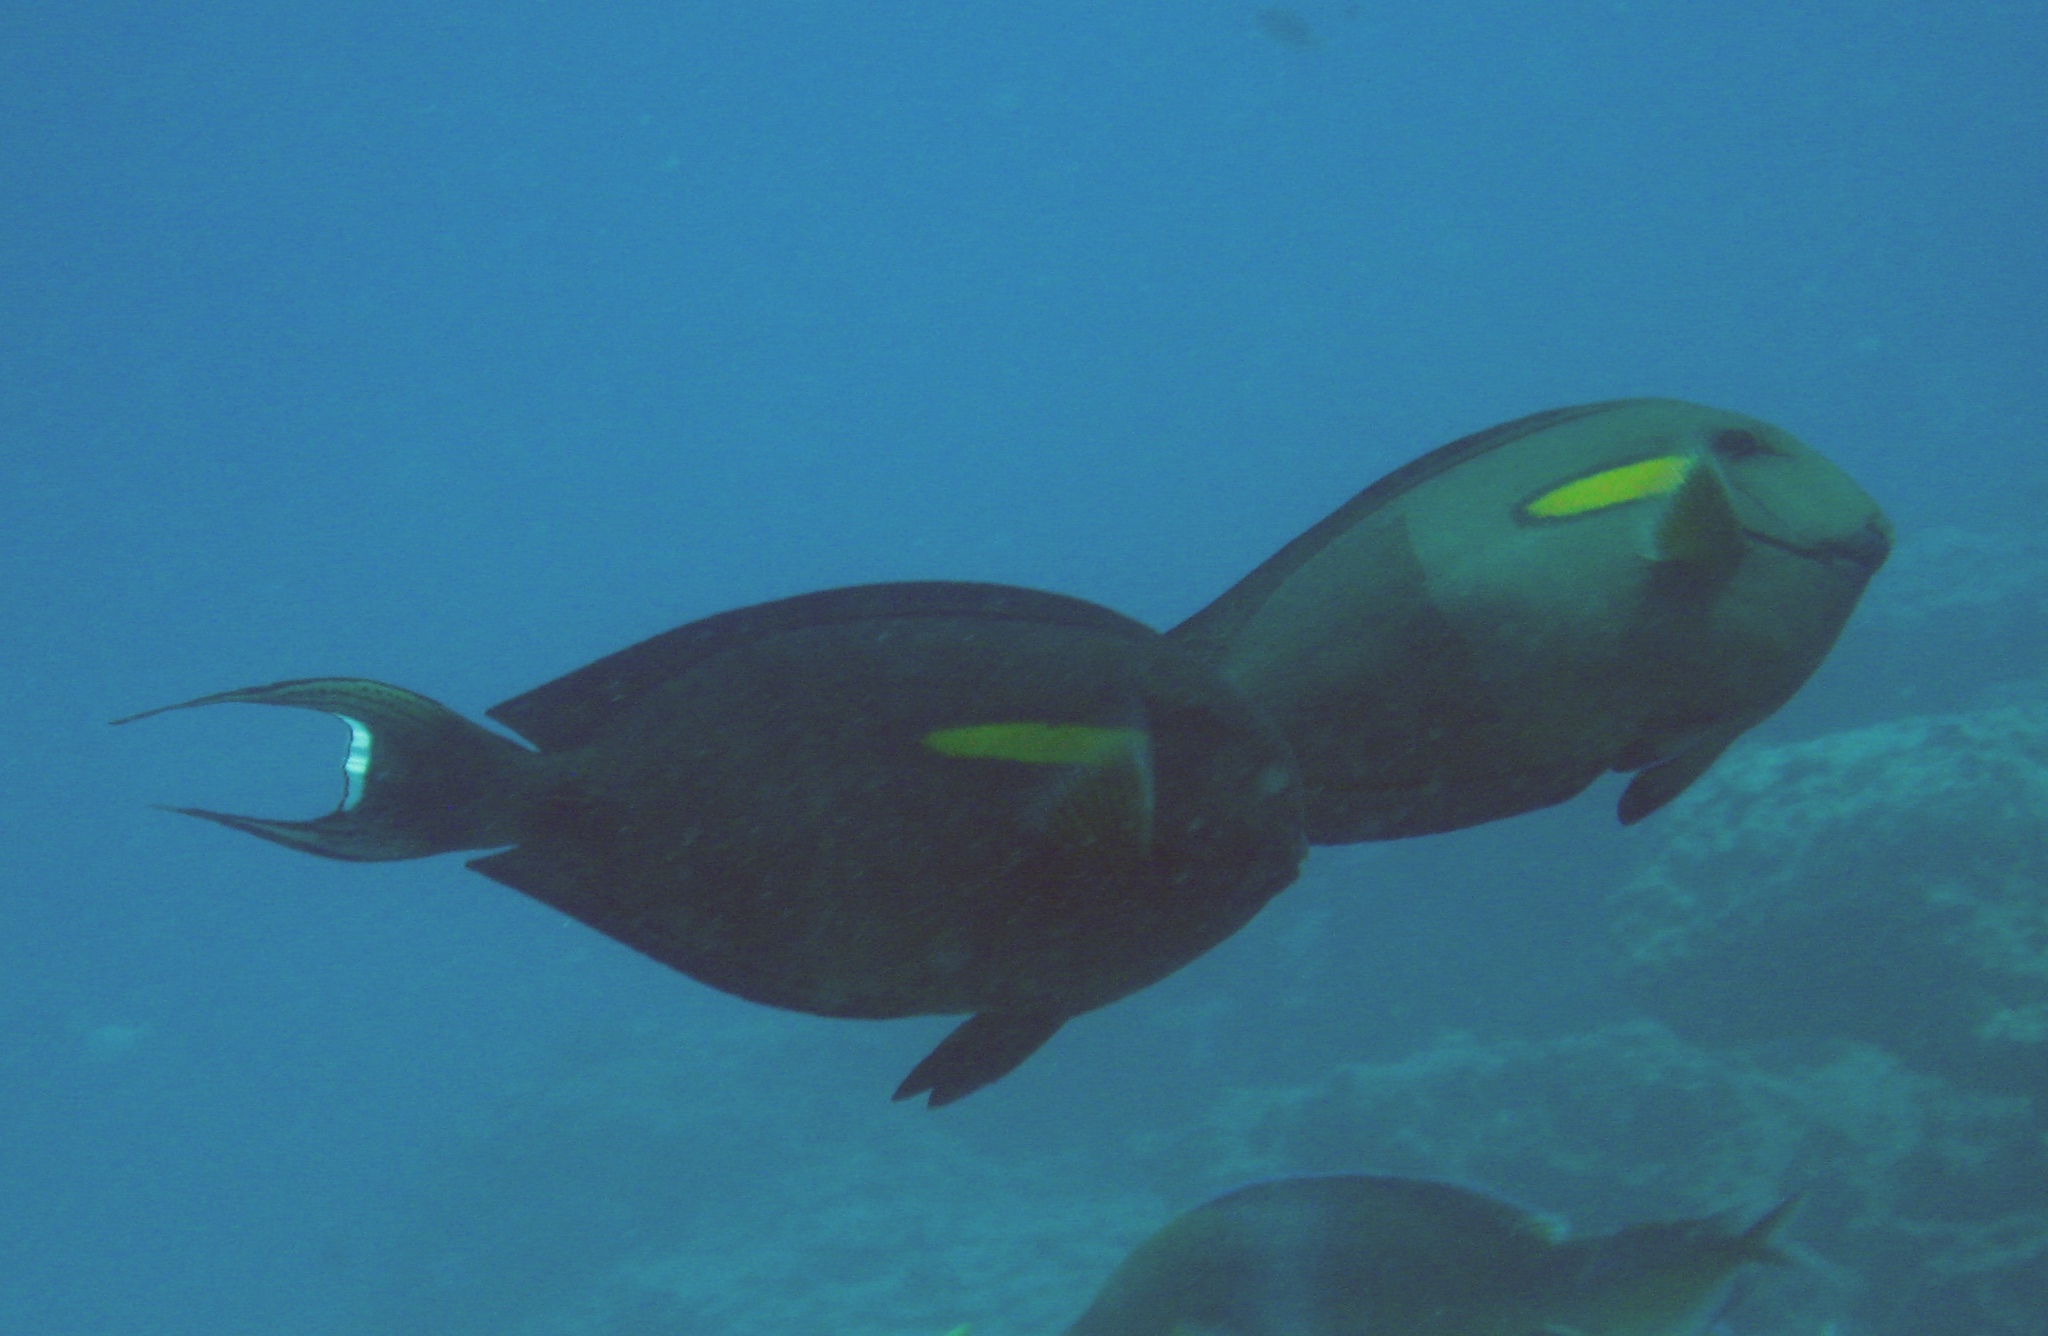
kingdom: Animalia
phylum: Chordata
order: Perciformes
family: Acanthuridae
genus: Acanthurus
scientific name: Acanthurus olivaceus
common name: Gendarme fish
